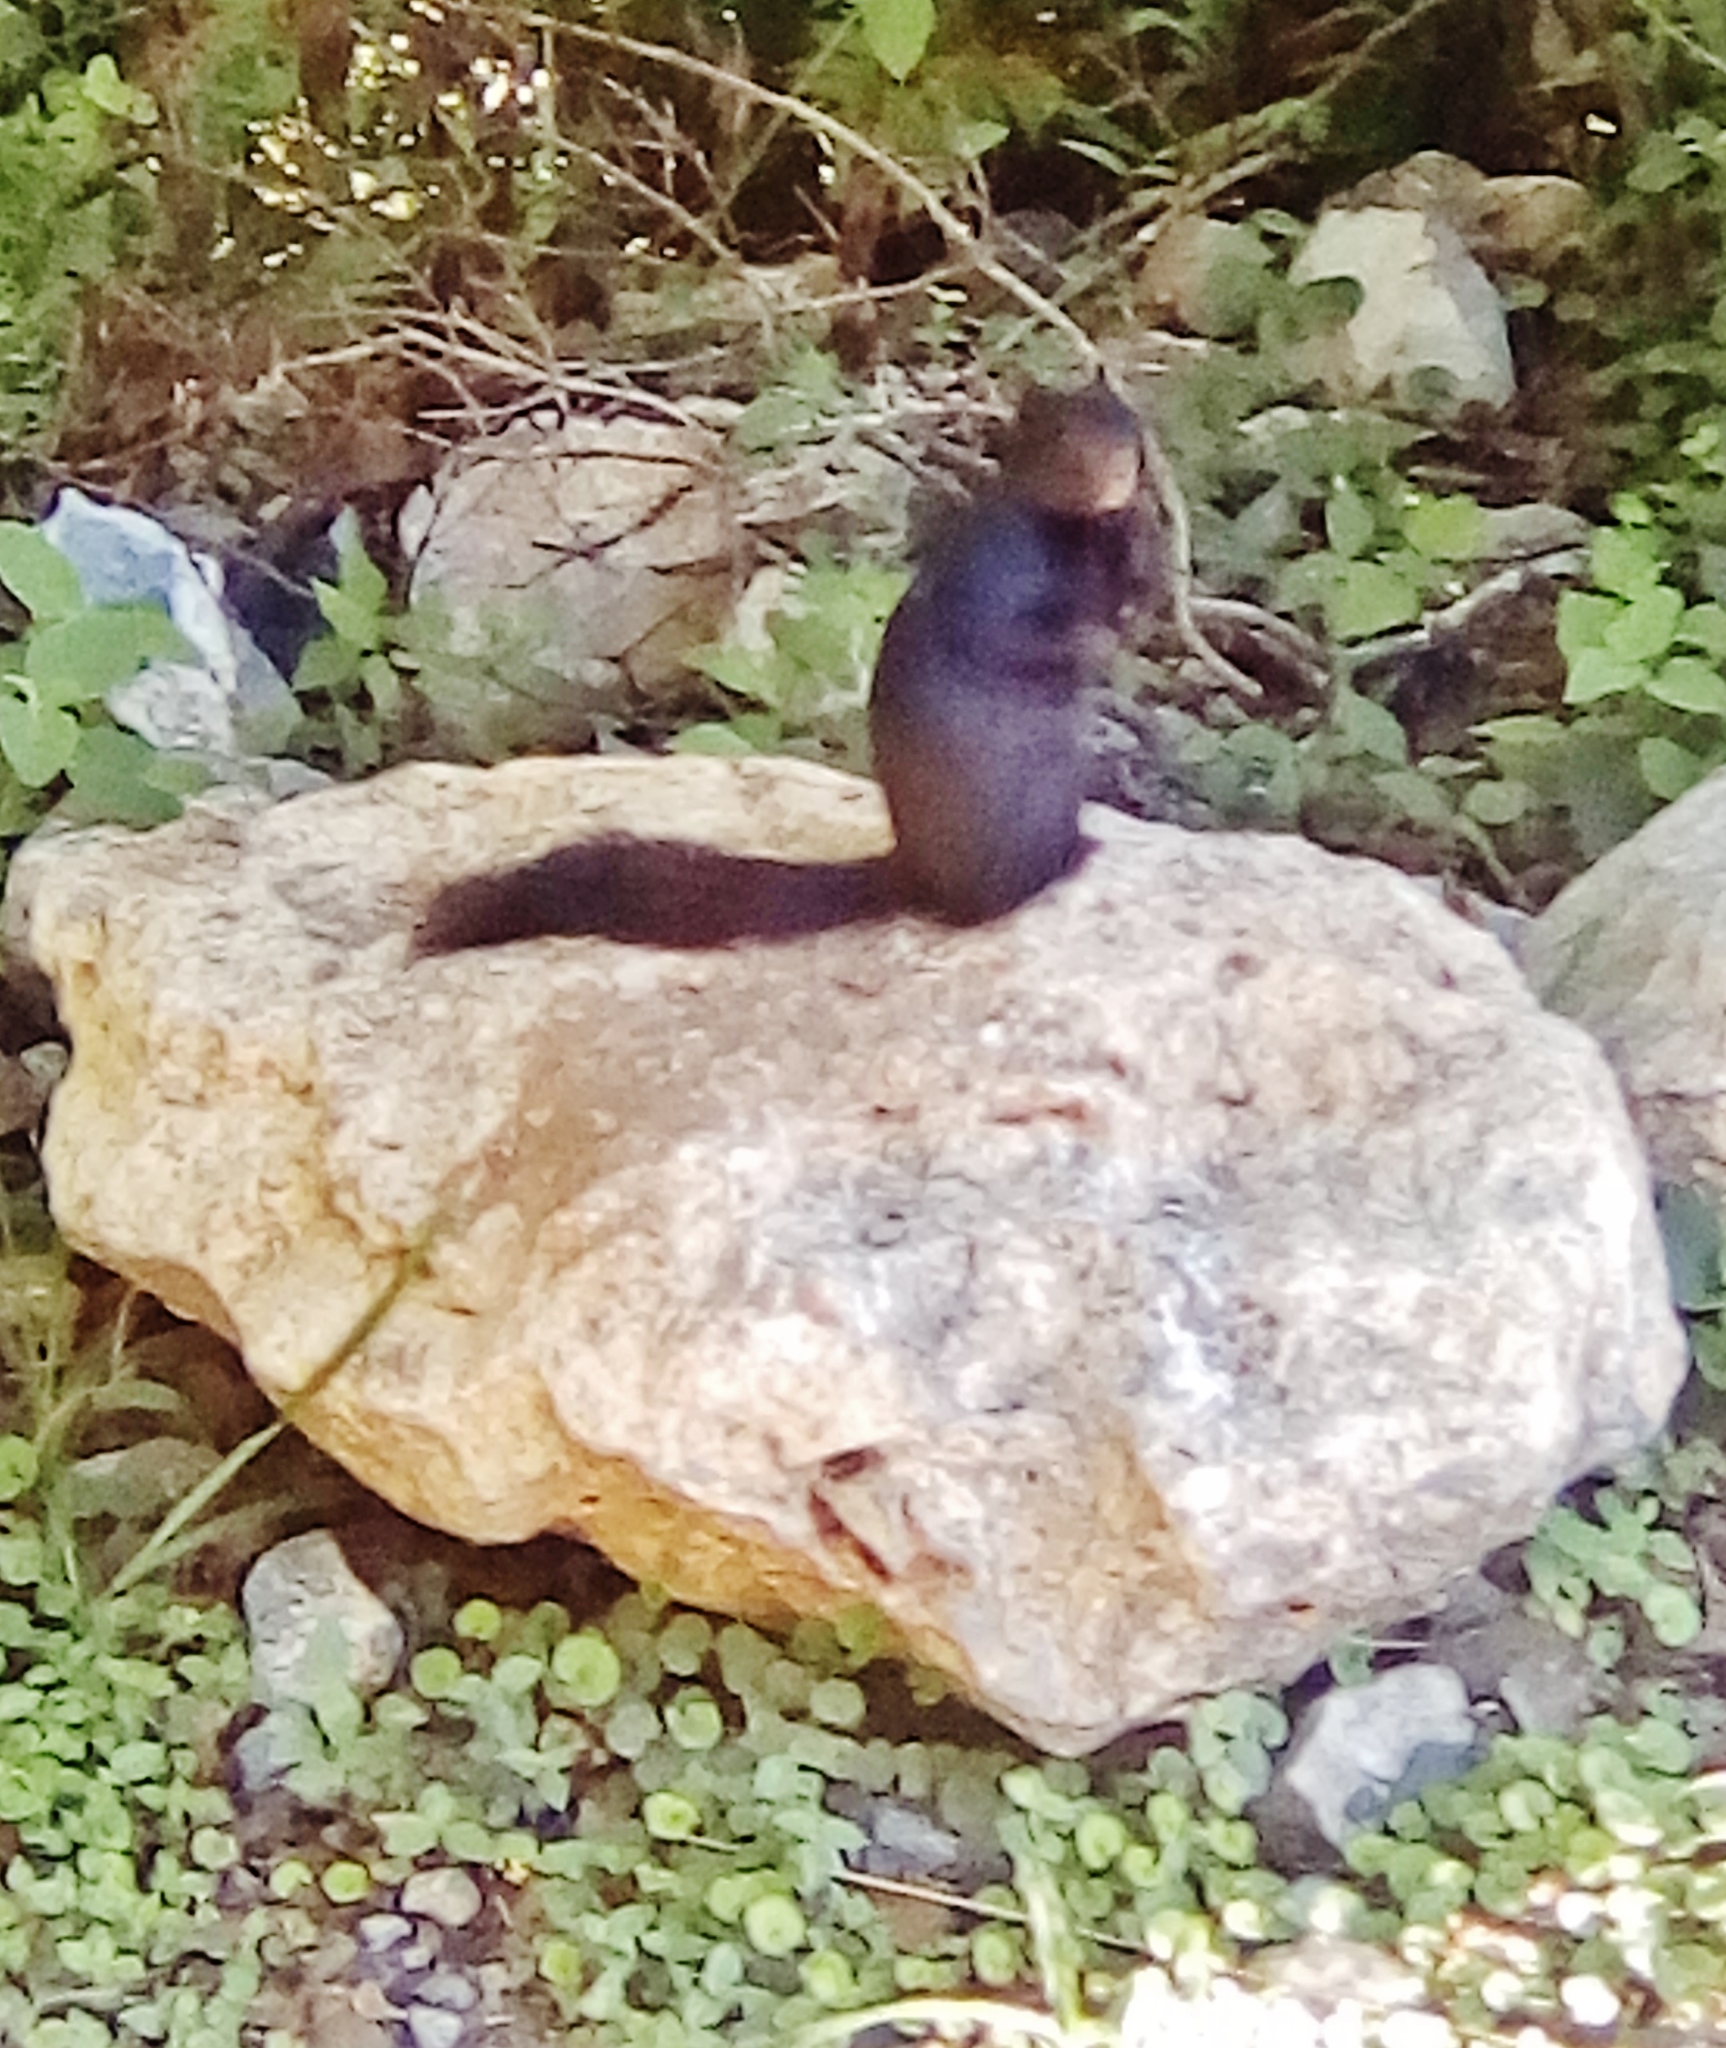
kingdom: Animalia
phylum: Chordata
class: Mammalia
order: Rodentia
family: Sciuridae
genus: Otospermophilus
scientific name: Otospermophilus variegatus
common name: Rock squirrel
